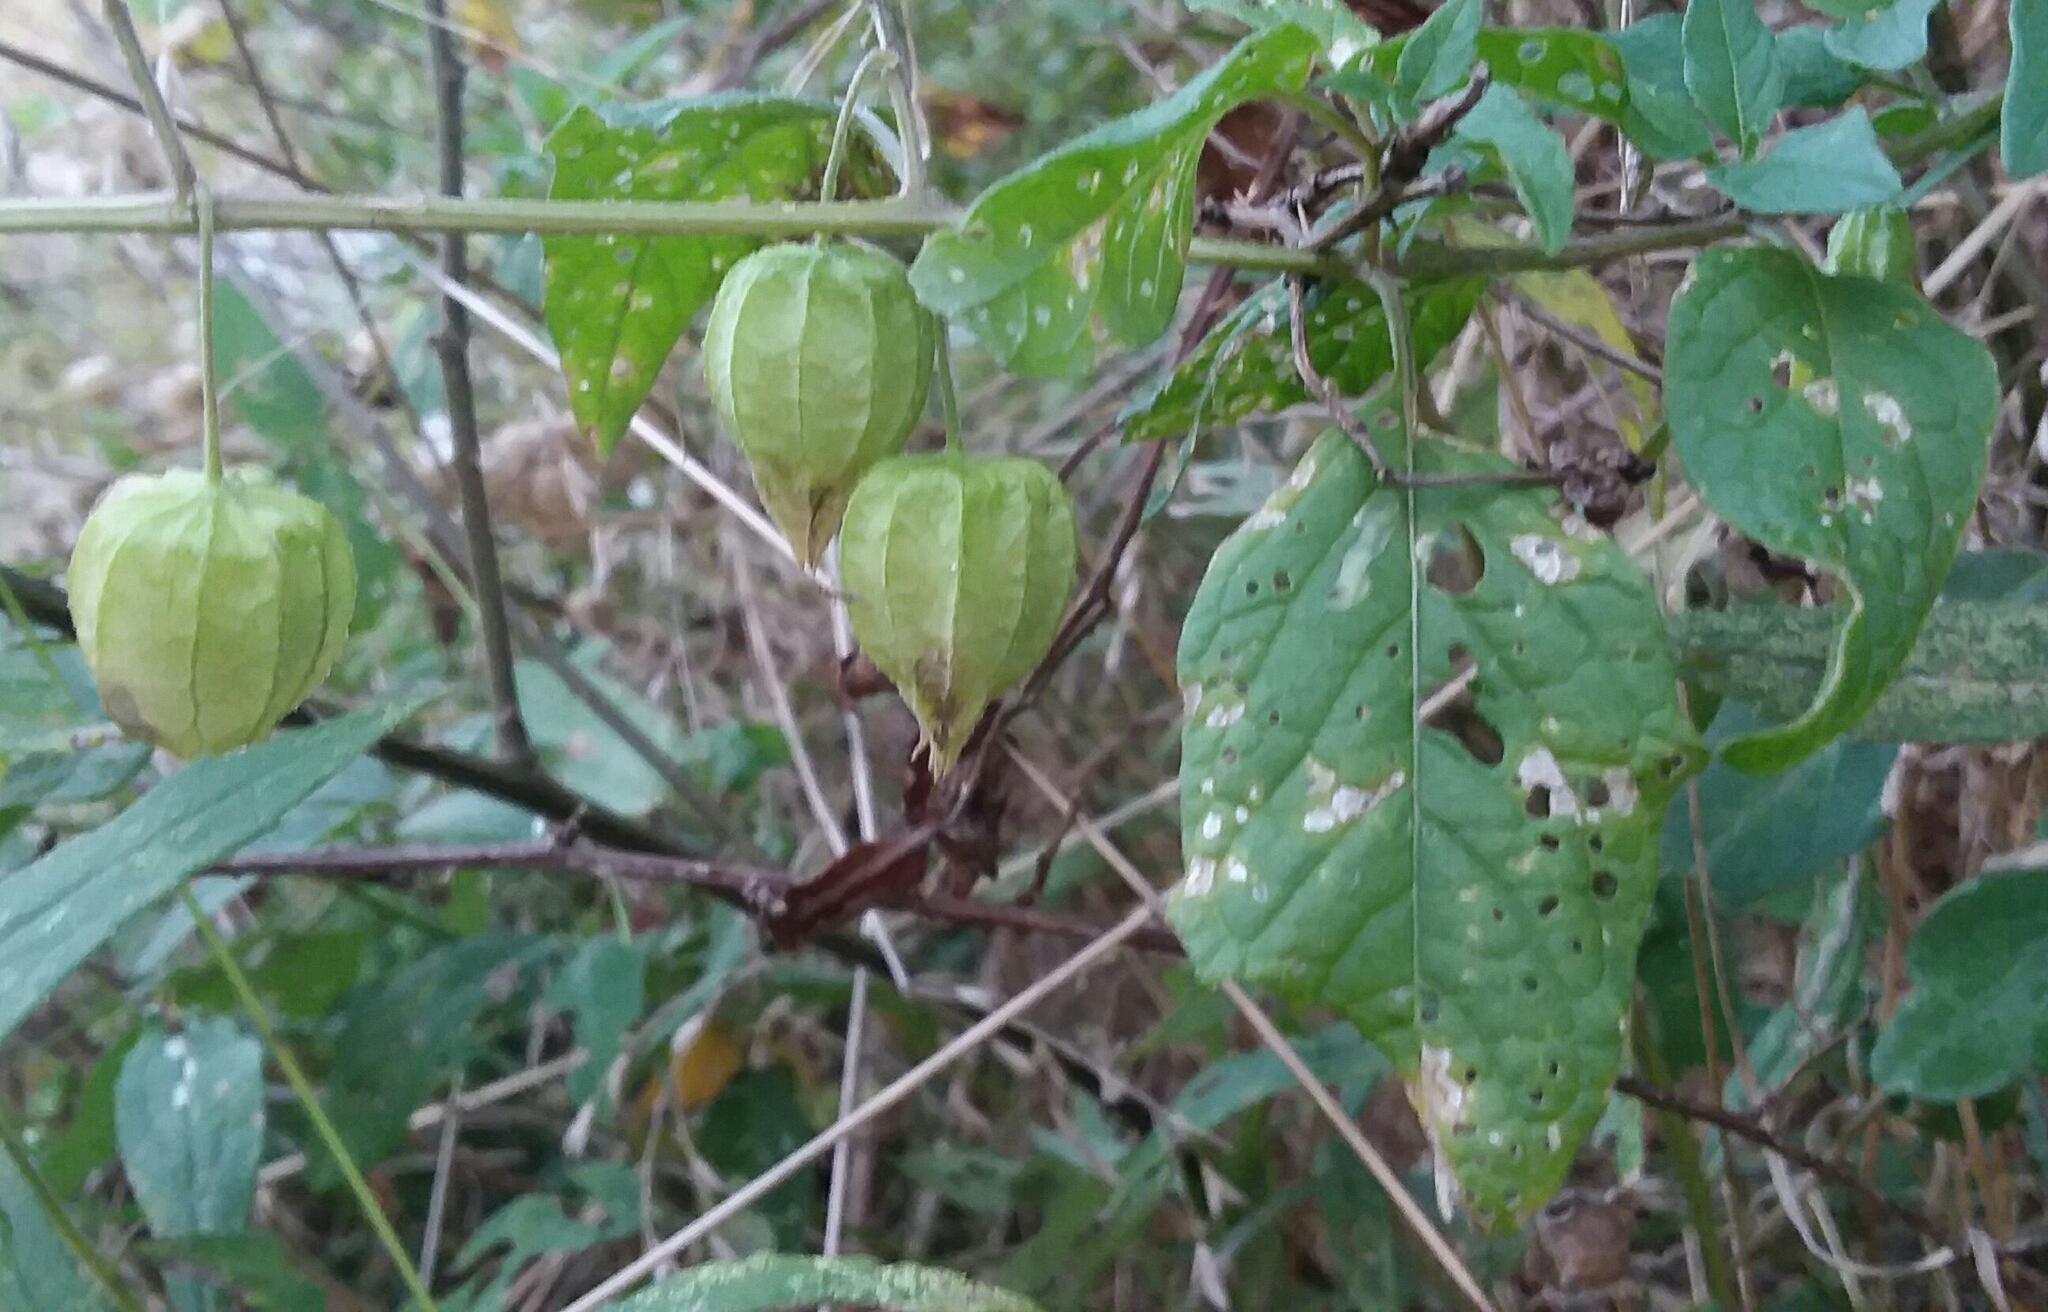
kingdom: Plantae
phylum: Tracheophyta
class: Magnoliopsida
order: Solanales
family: Solanaceae
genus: Physalis
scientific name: Physalis longifolia
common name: Common ground-cherry
